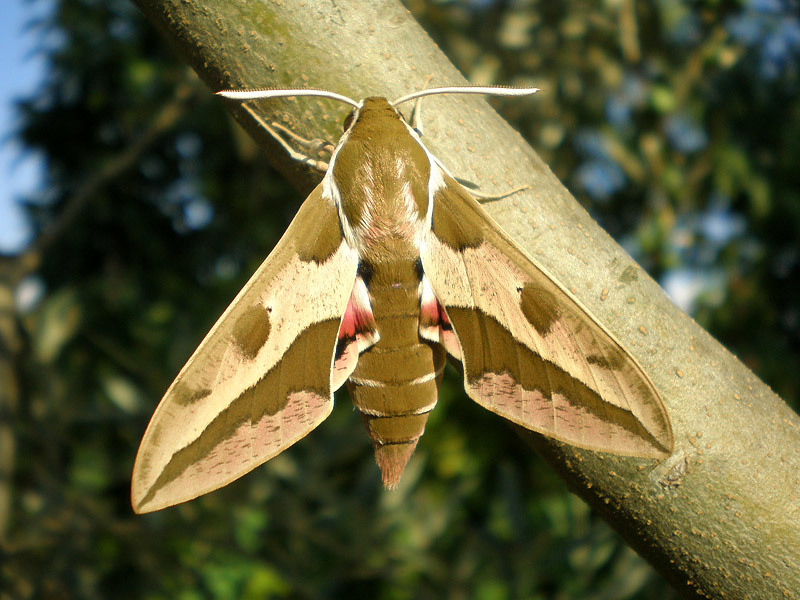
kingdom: Animalia
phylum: Arthropoda
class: Insecta
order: Lepidoptera
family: Sphingidae
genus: Hyles
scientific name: Hyles euphorbiae
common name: Spurge hawk-moth
